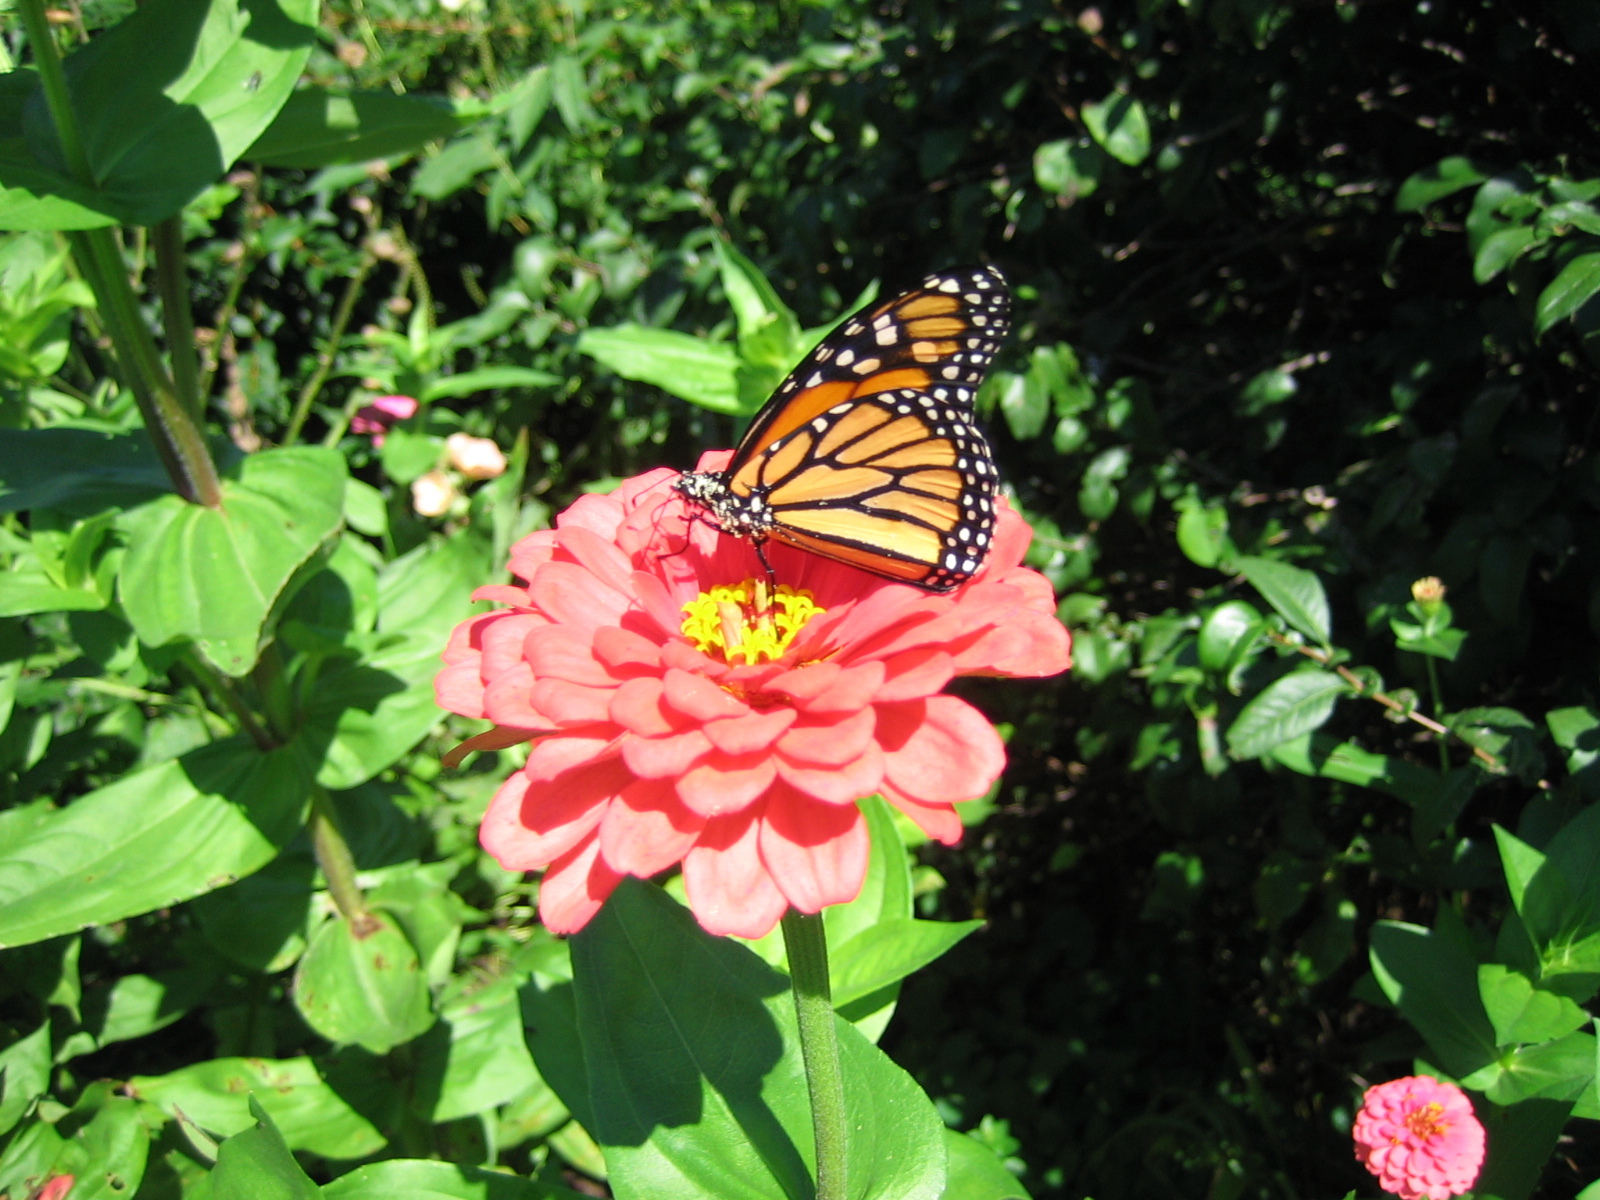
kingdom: Animalia
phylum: Arthropoda
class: Insecta
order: Lepidoptera
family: Nymphalidae
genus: Danaus
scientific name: Danaus plexippus
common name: Monarch
